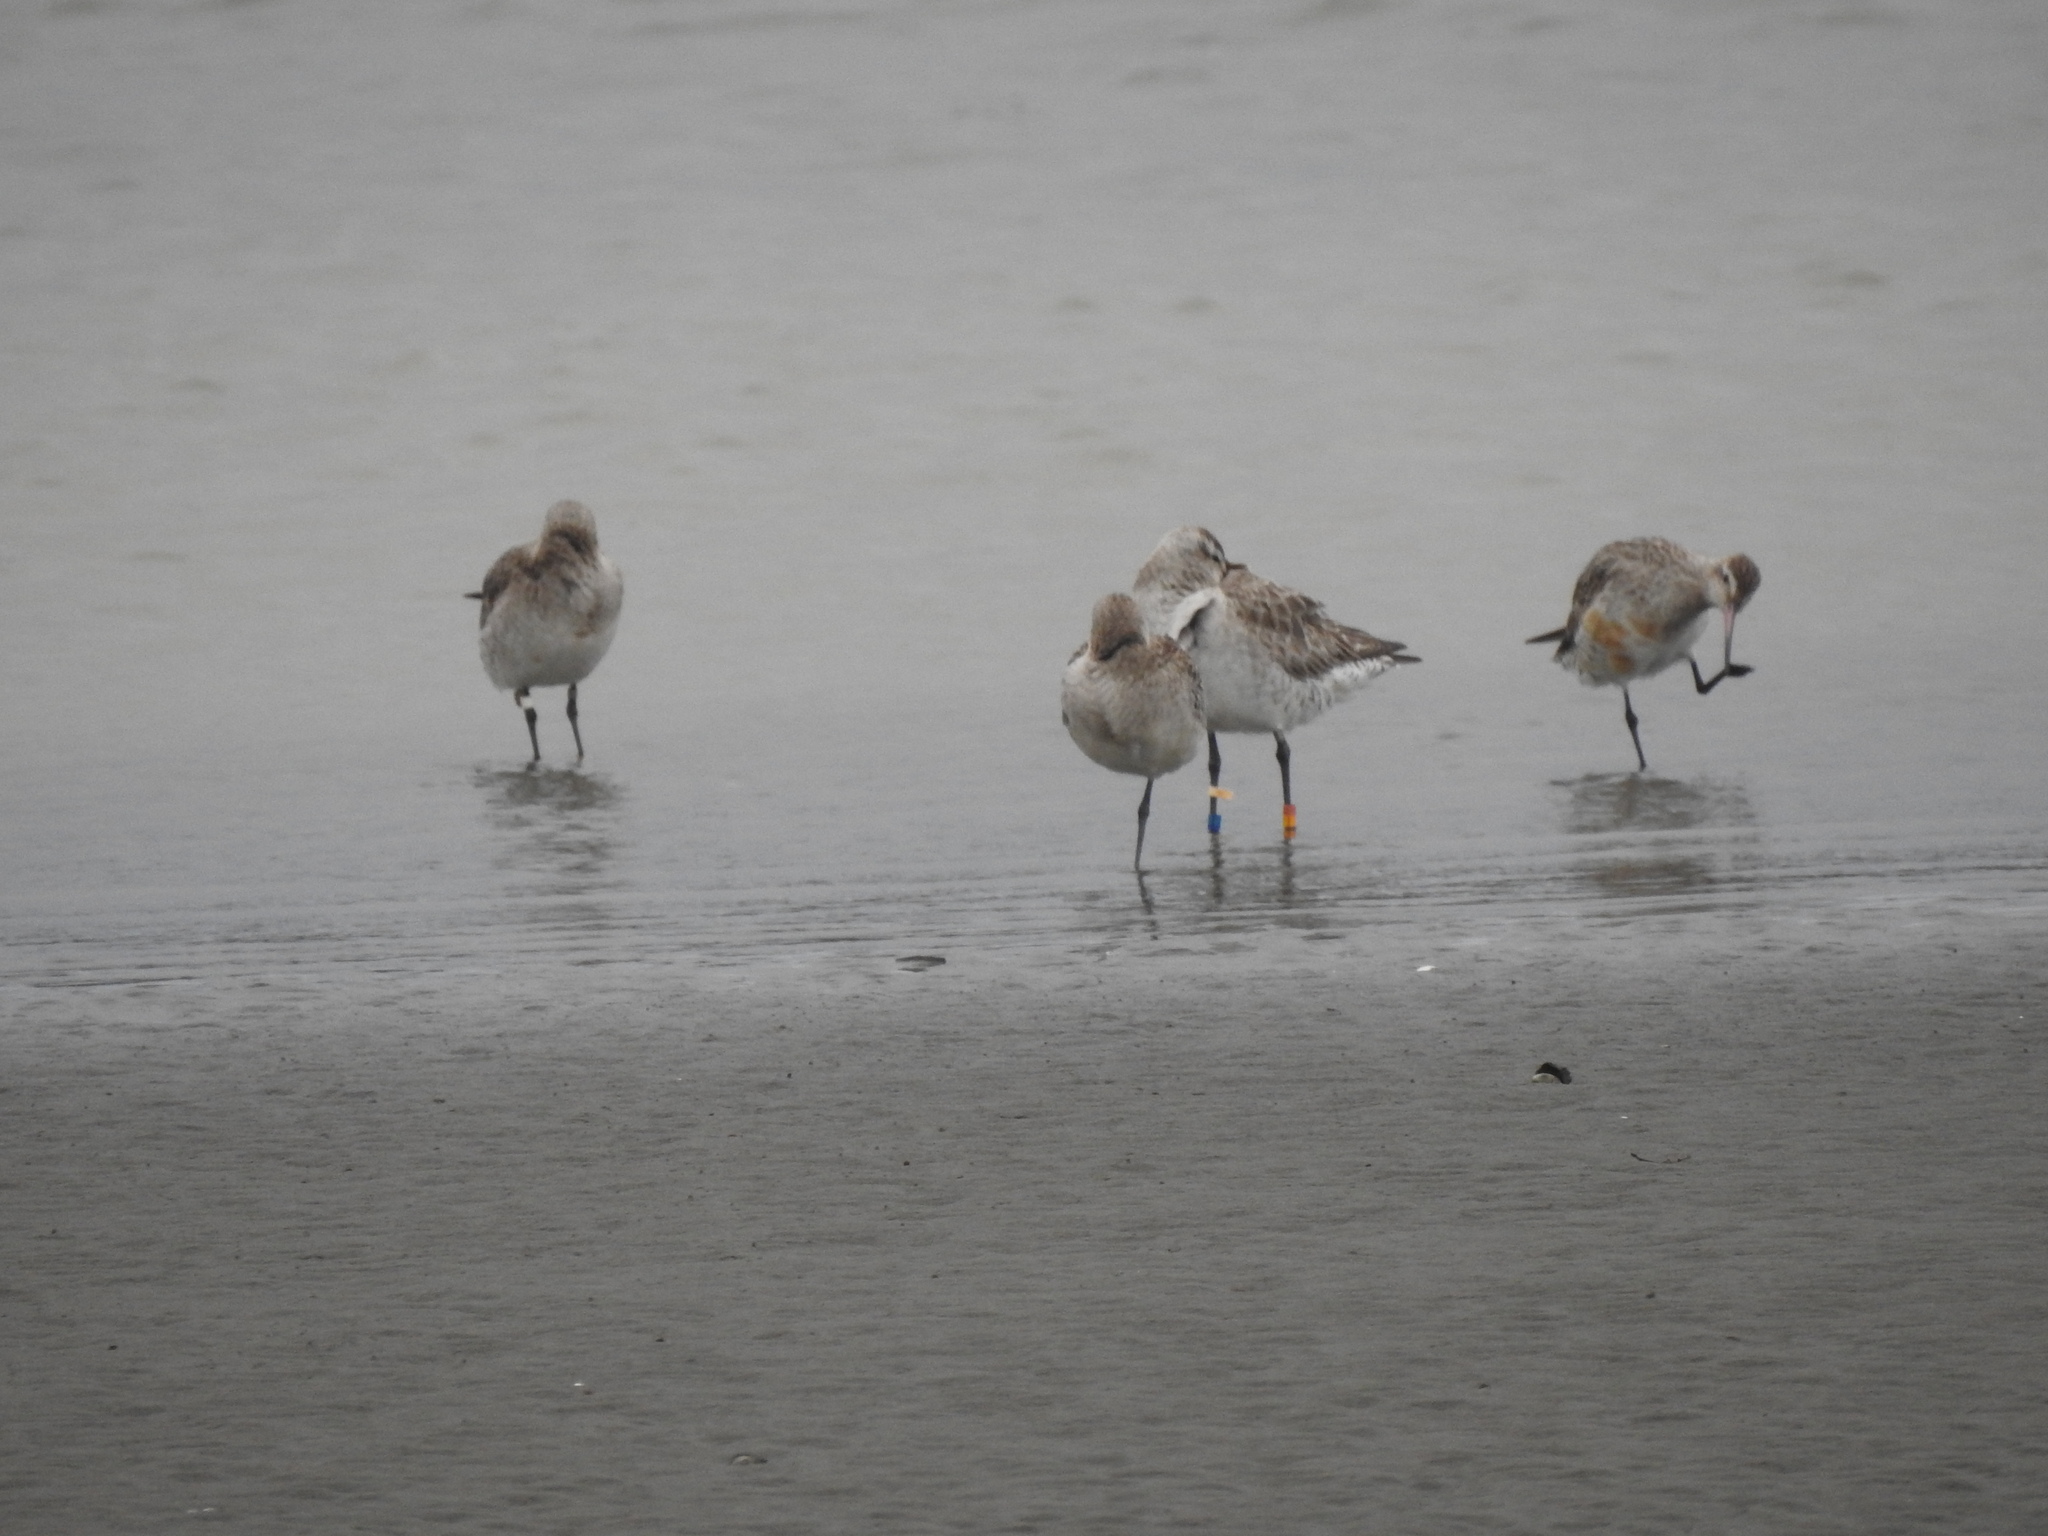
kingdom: Animalia
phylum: Chordata
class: Aves
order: Charadriiformes
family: Scolopacidae
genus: Limosa
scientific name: Limosa lapponica
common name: Bar-tailed godwit
